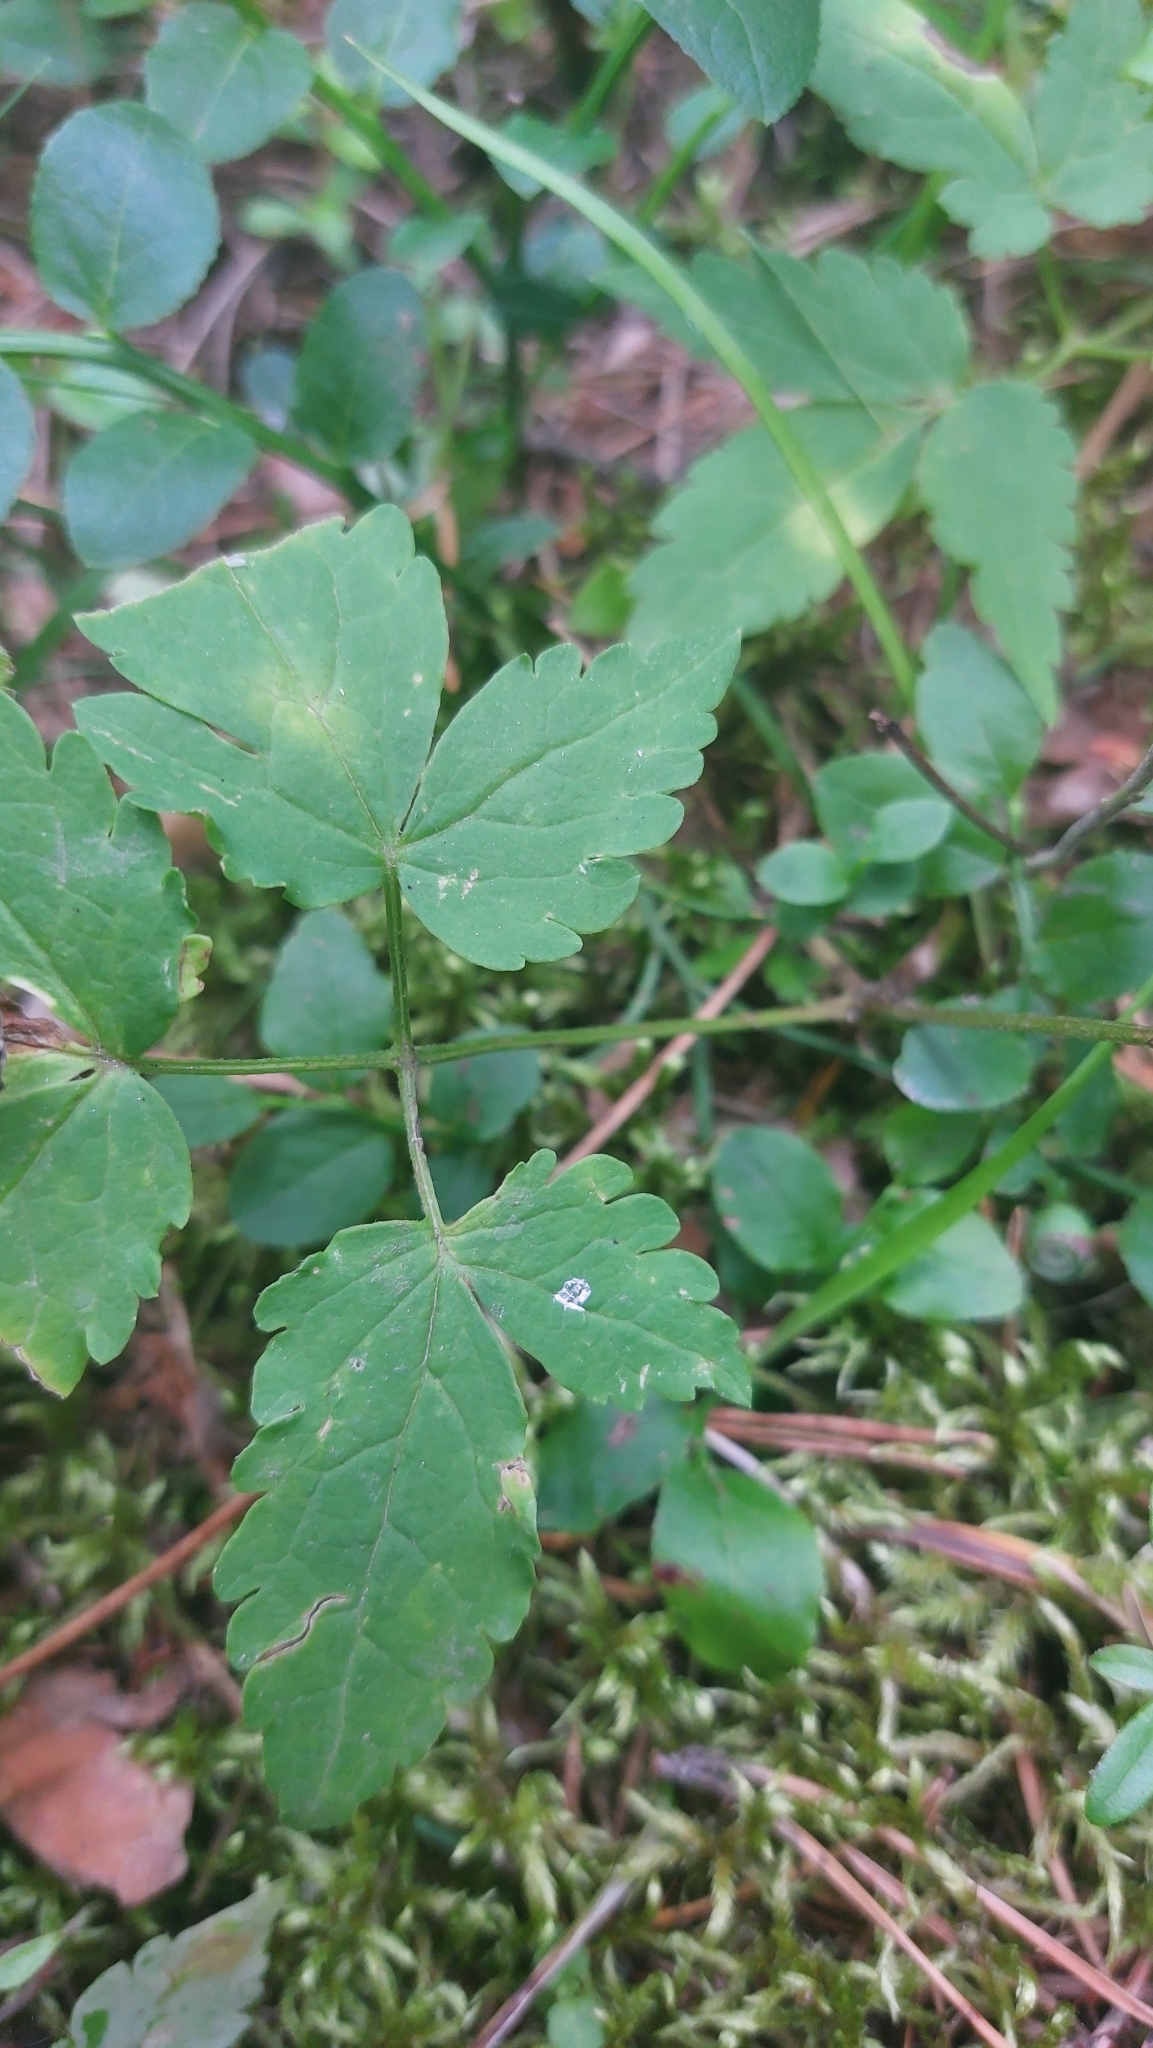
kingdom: Plantae
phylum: Tracheophyta
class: Magnoliopsida
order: Ranunculales
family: Ranunculaceae
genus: Clematis
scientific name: Clematis sibirica
